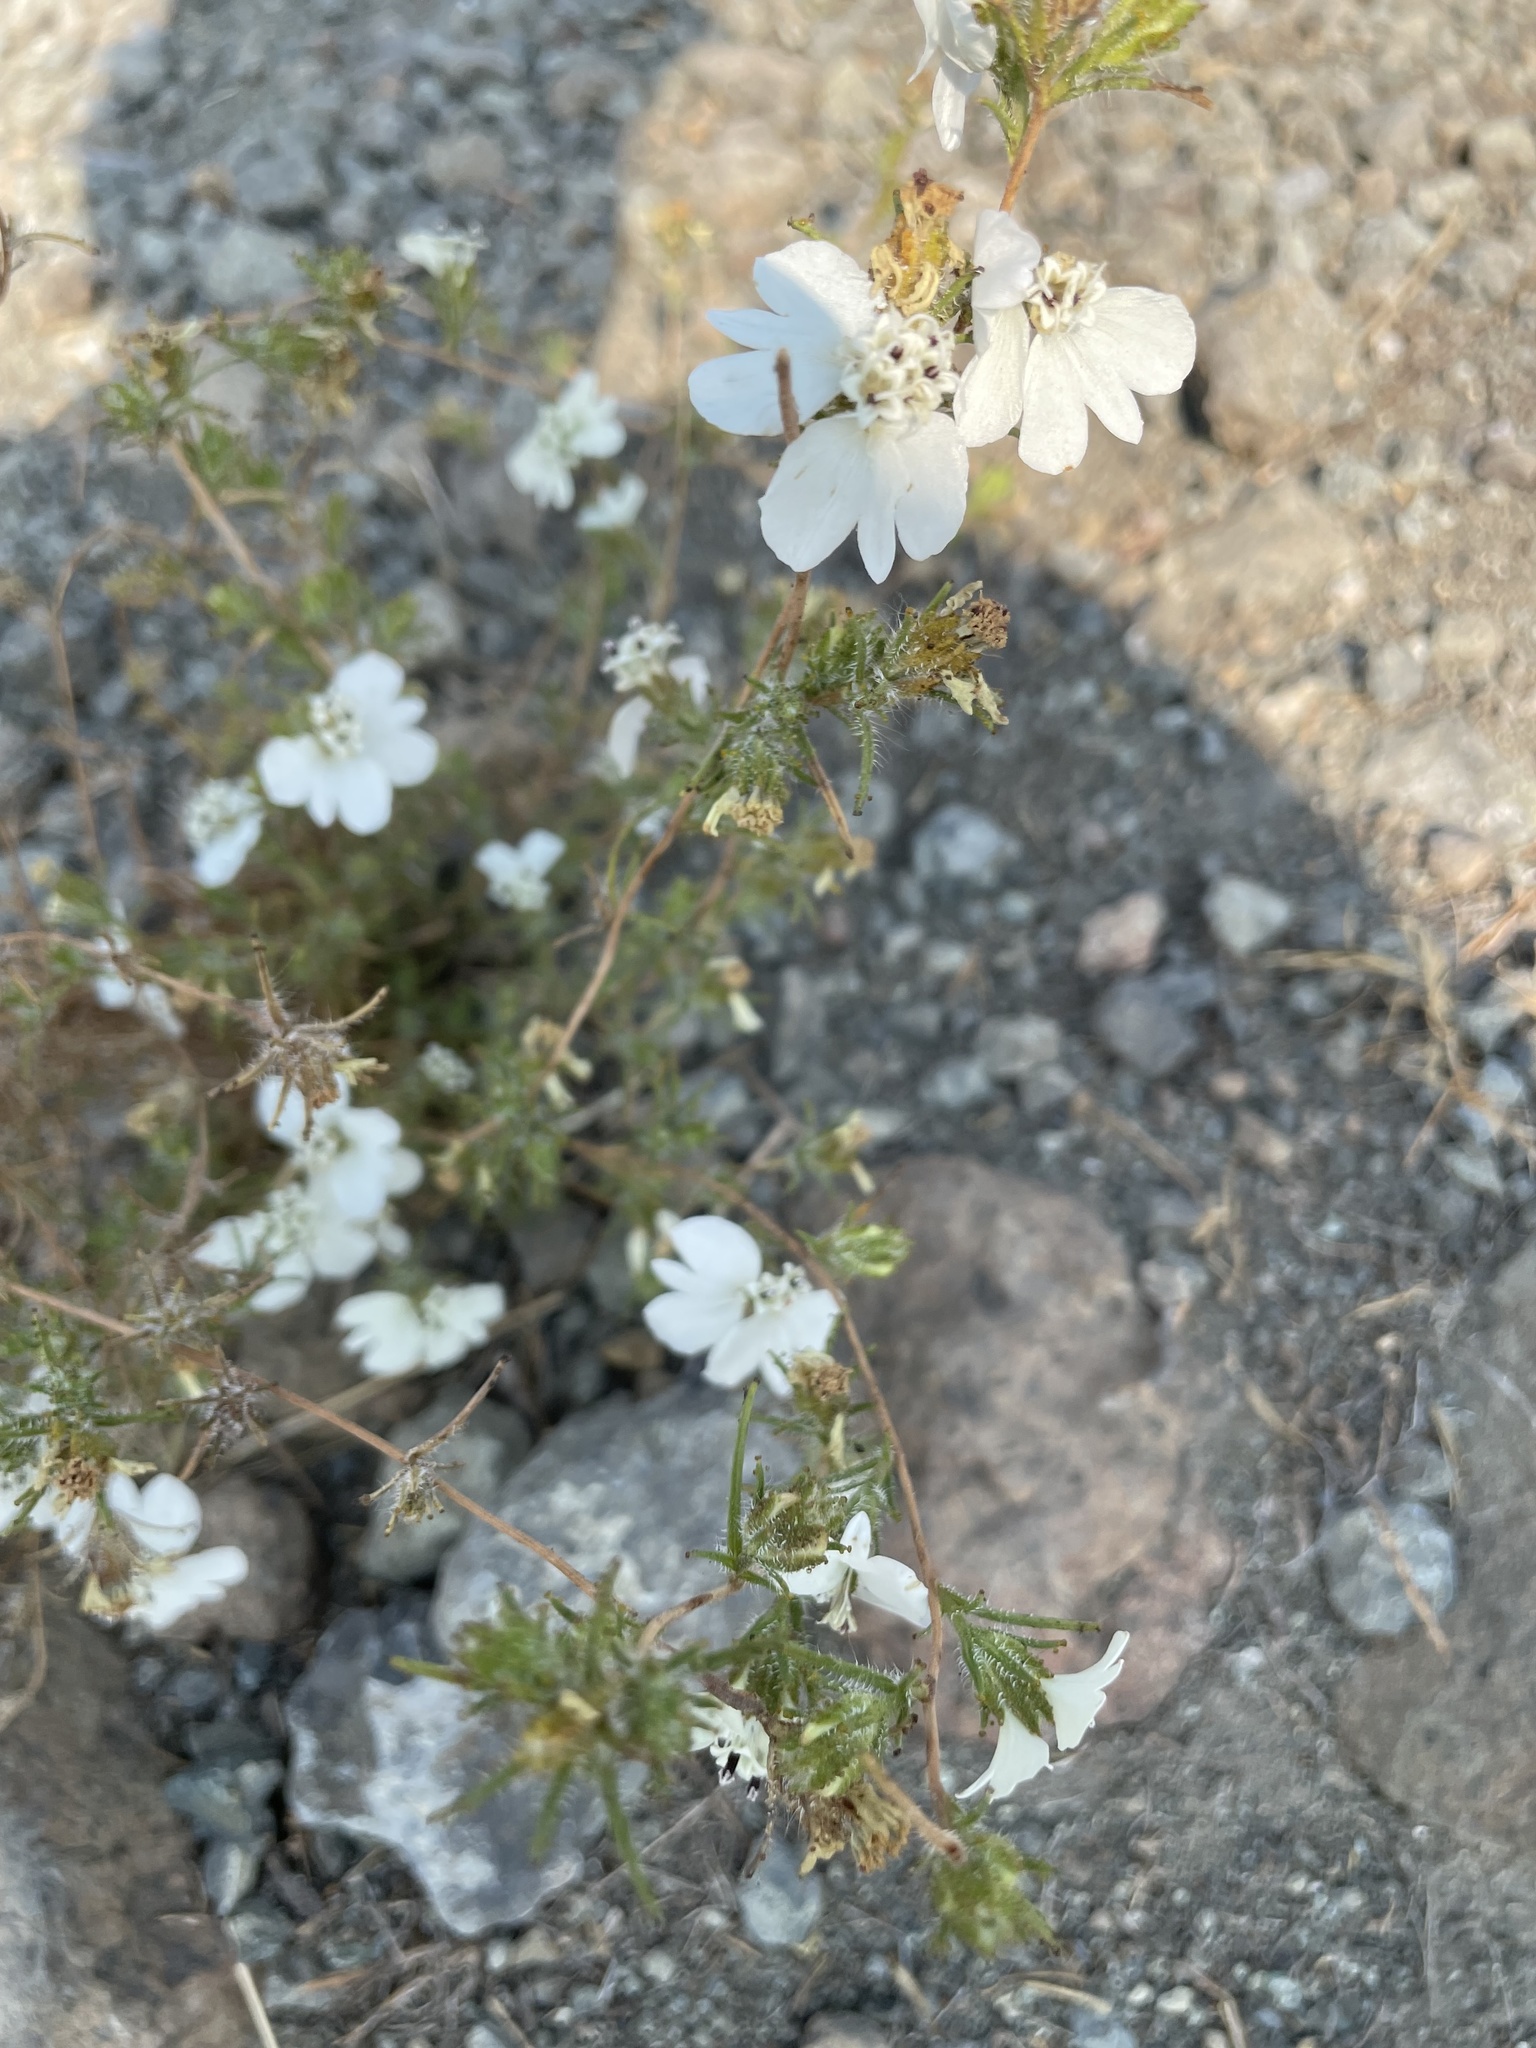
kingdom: Plantae
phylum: Tracheophyta
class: Magnoliopsida
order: Asterales
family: Asteraceae
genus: Calycadenia
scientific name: Calycadenia multiglandulosa
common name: Sticky calycadenia
